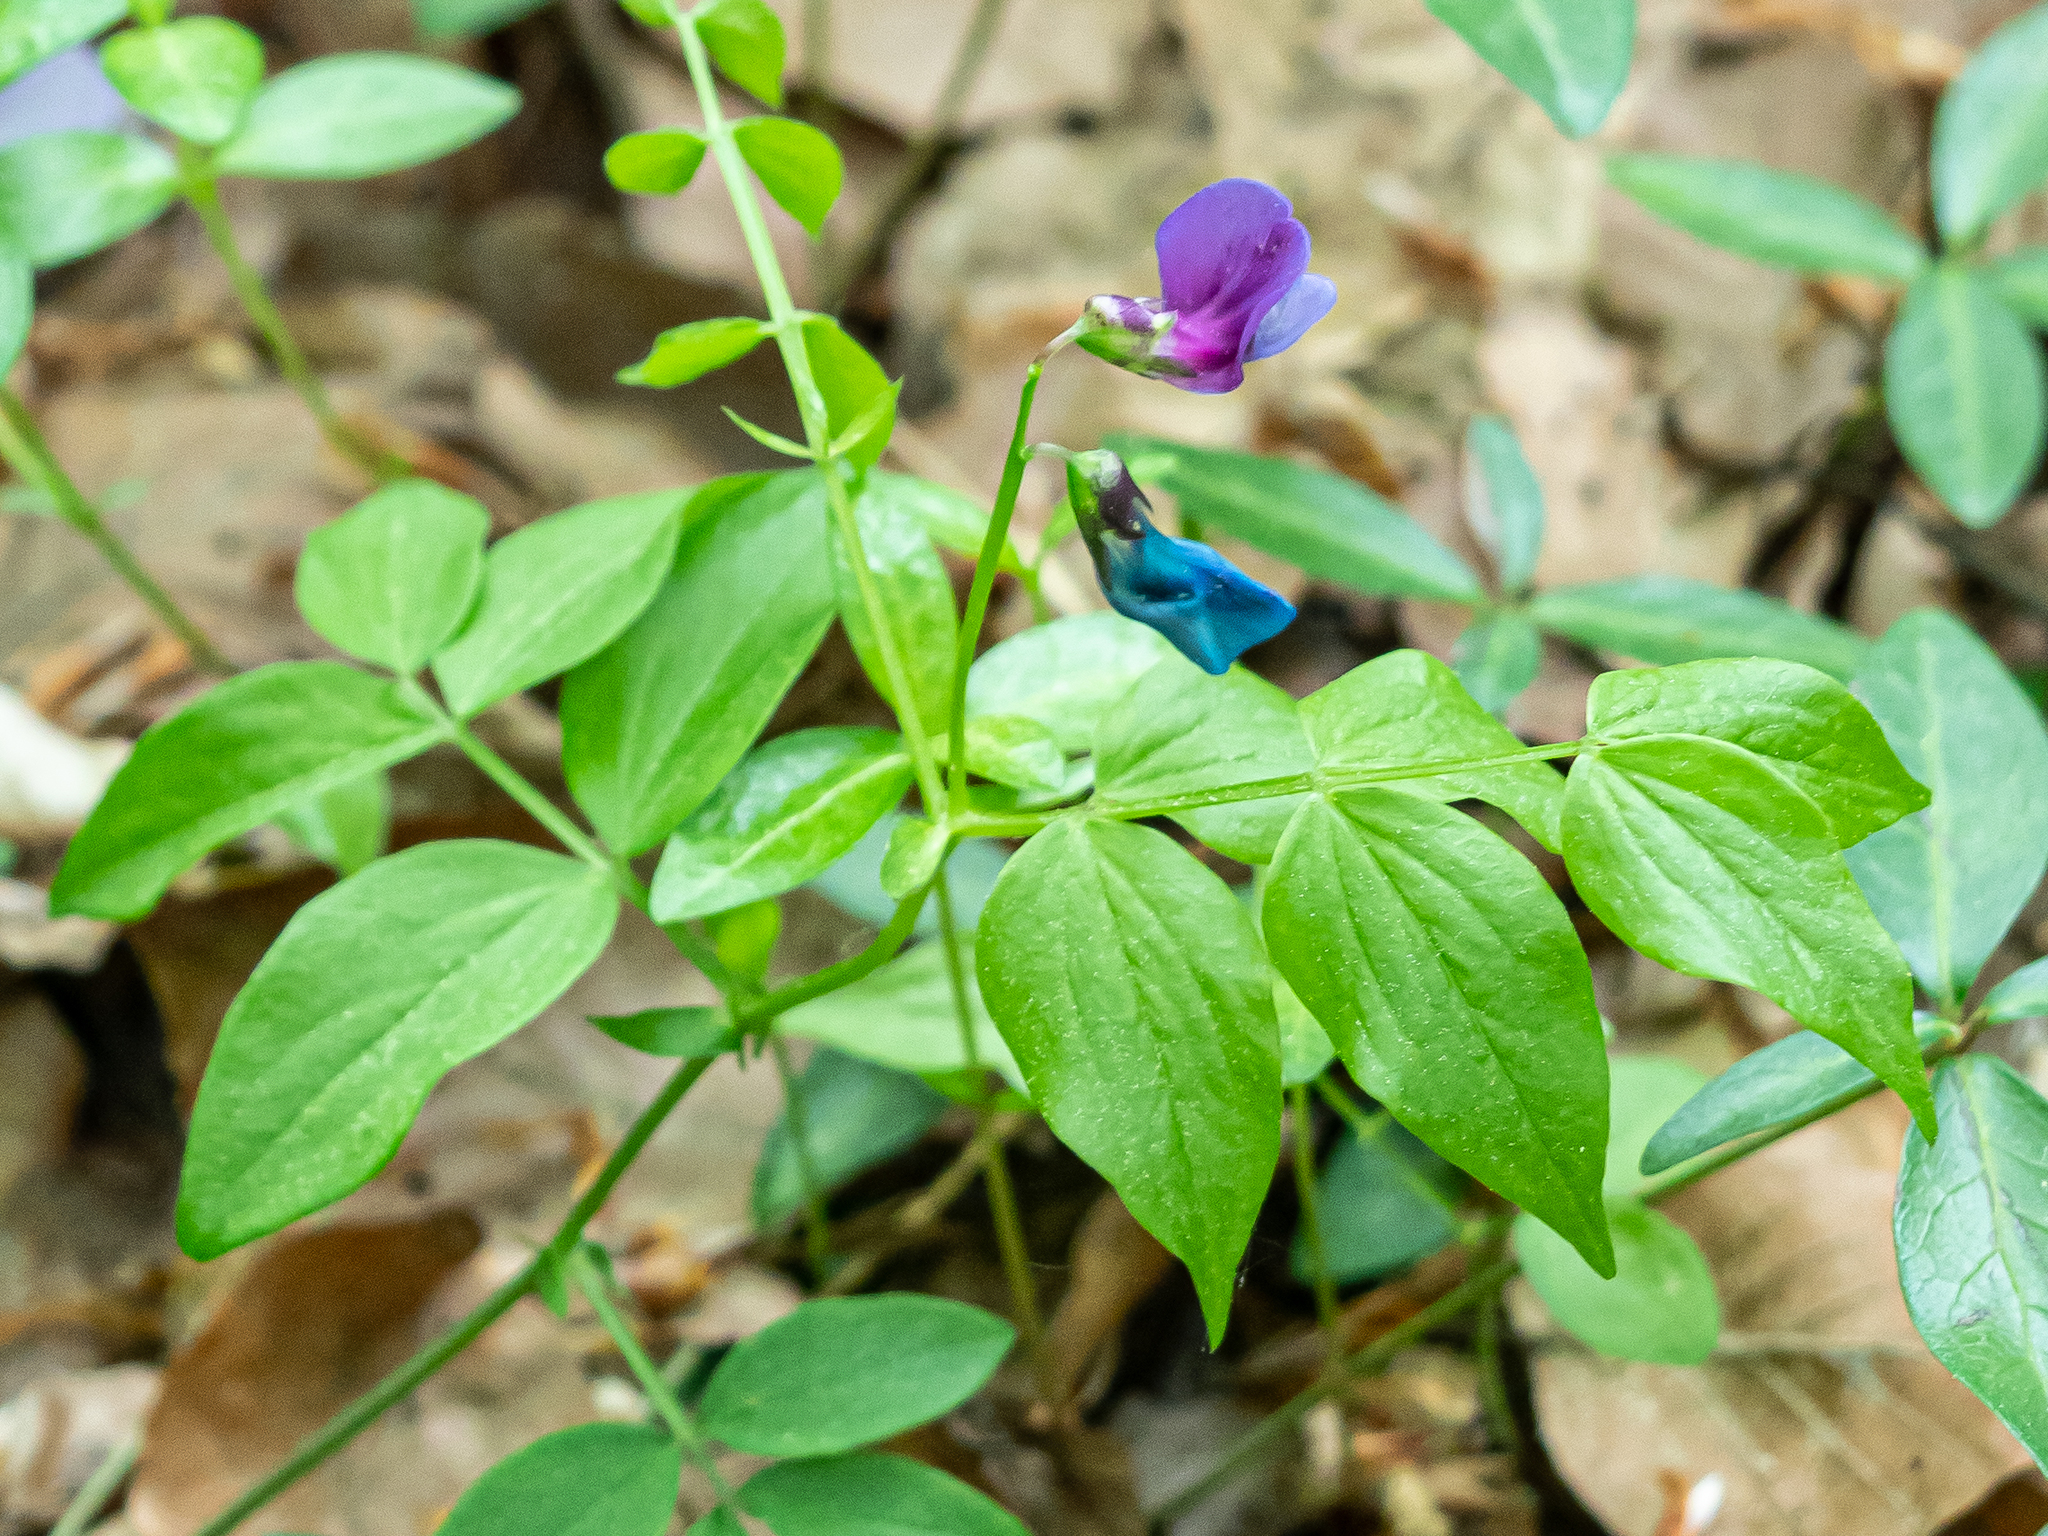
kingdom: Plantae
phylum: Tracheophyta
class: Magnoliopsida
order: Fabales
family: Fabaceae
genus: Lathyrus
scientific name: Lathyrus vernus
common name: Spring pea
